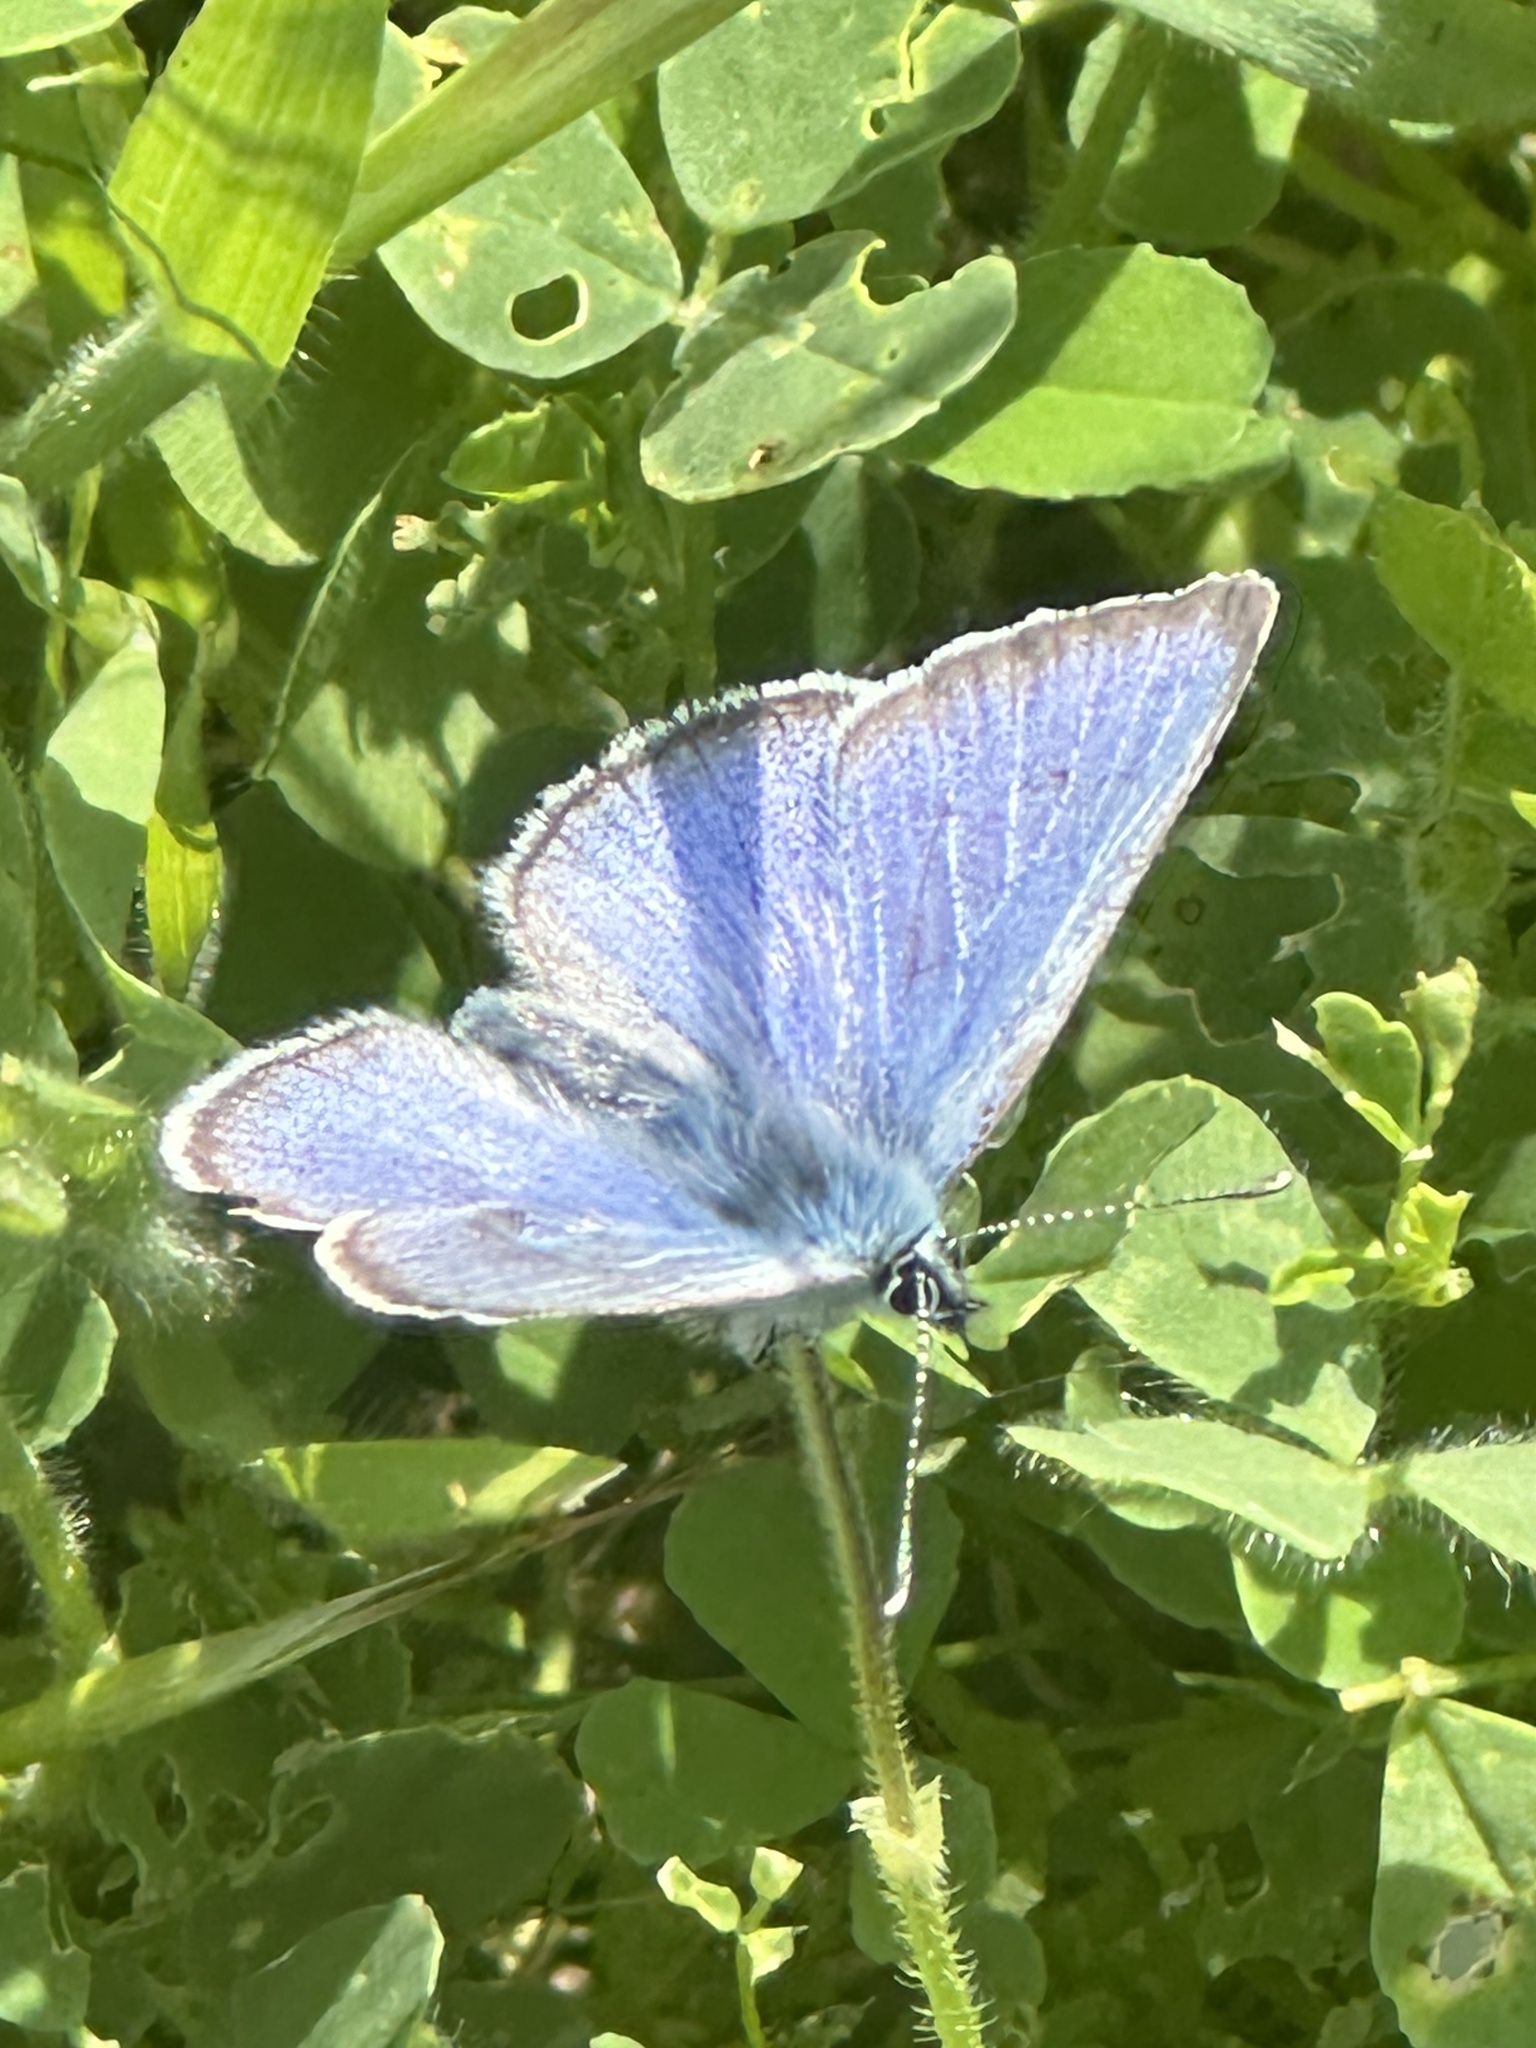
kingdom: Animalia
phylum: Arthropoda
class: Insecta
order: Lepidoptera
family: Lycaenidae
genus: Glaucopsyche
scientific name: Glaucopsyche lygdamus
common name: Silvery blue
